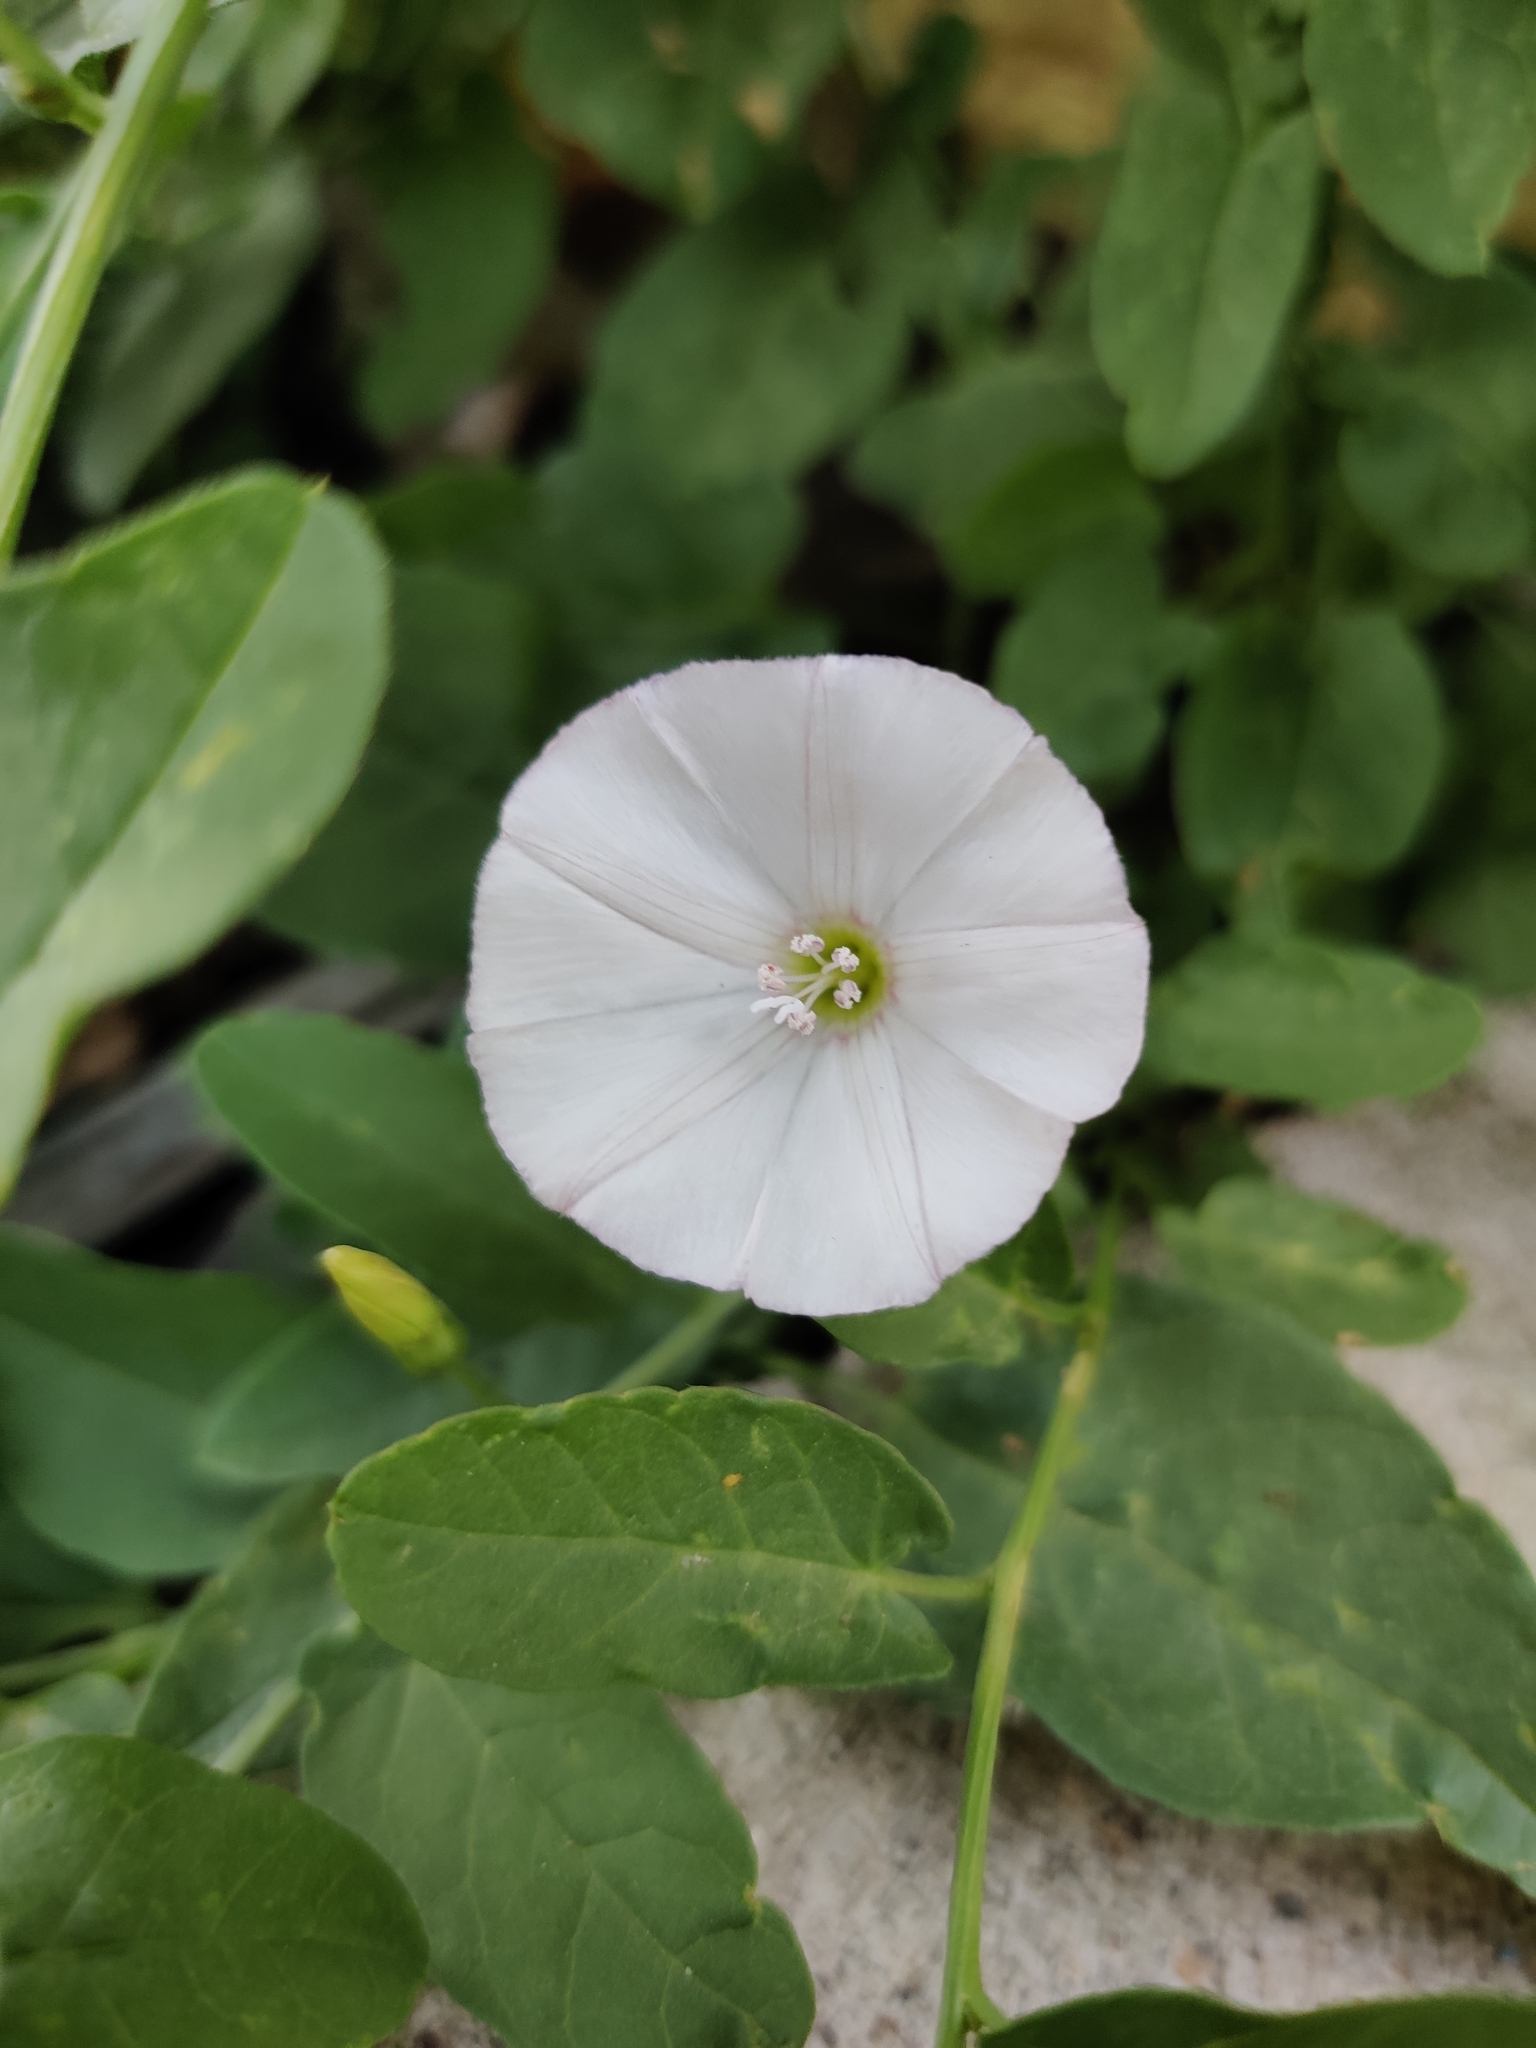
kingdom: Plantae
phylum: Tracheophyta
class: Magnoliopsida
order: Solanales
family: Convolvulaceae
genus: Convolvulus
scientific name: Convolvulus arvensis
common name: Field bindweed
